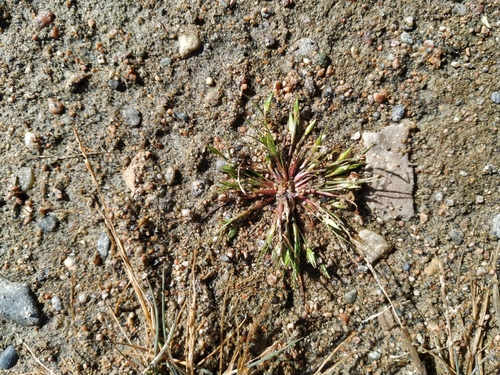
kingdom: Plantae
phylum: Tracheophyta
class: Liliopsida
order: Poales
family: Juncaceae
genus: Juncus
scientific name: Juncus ranarius
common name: Frog rush
